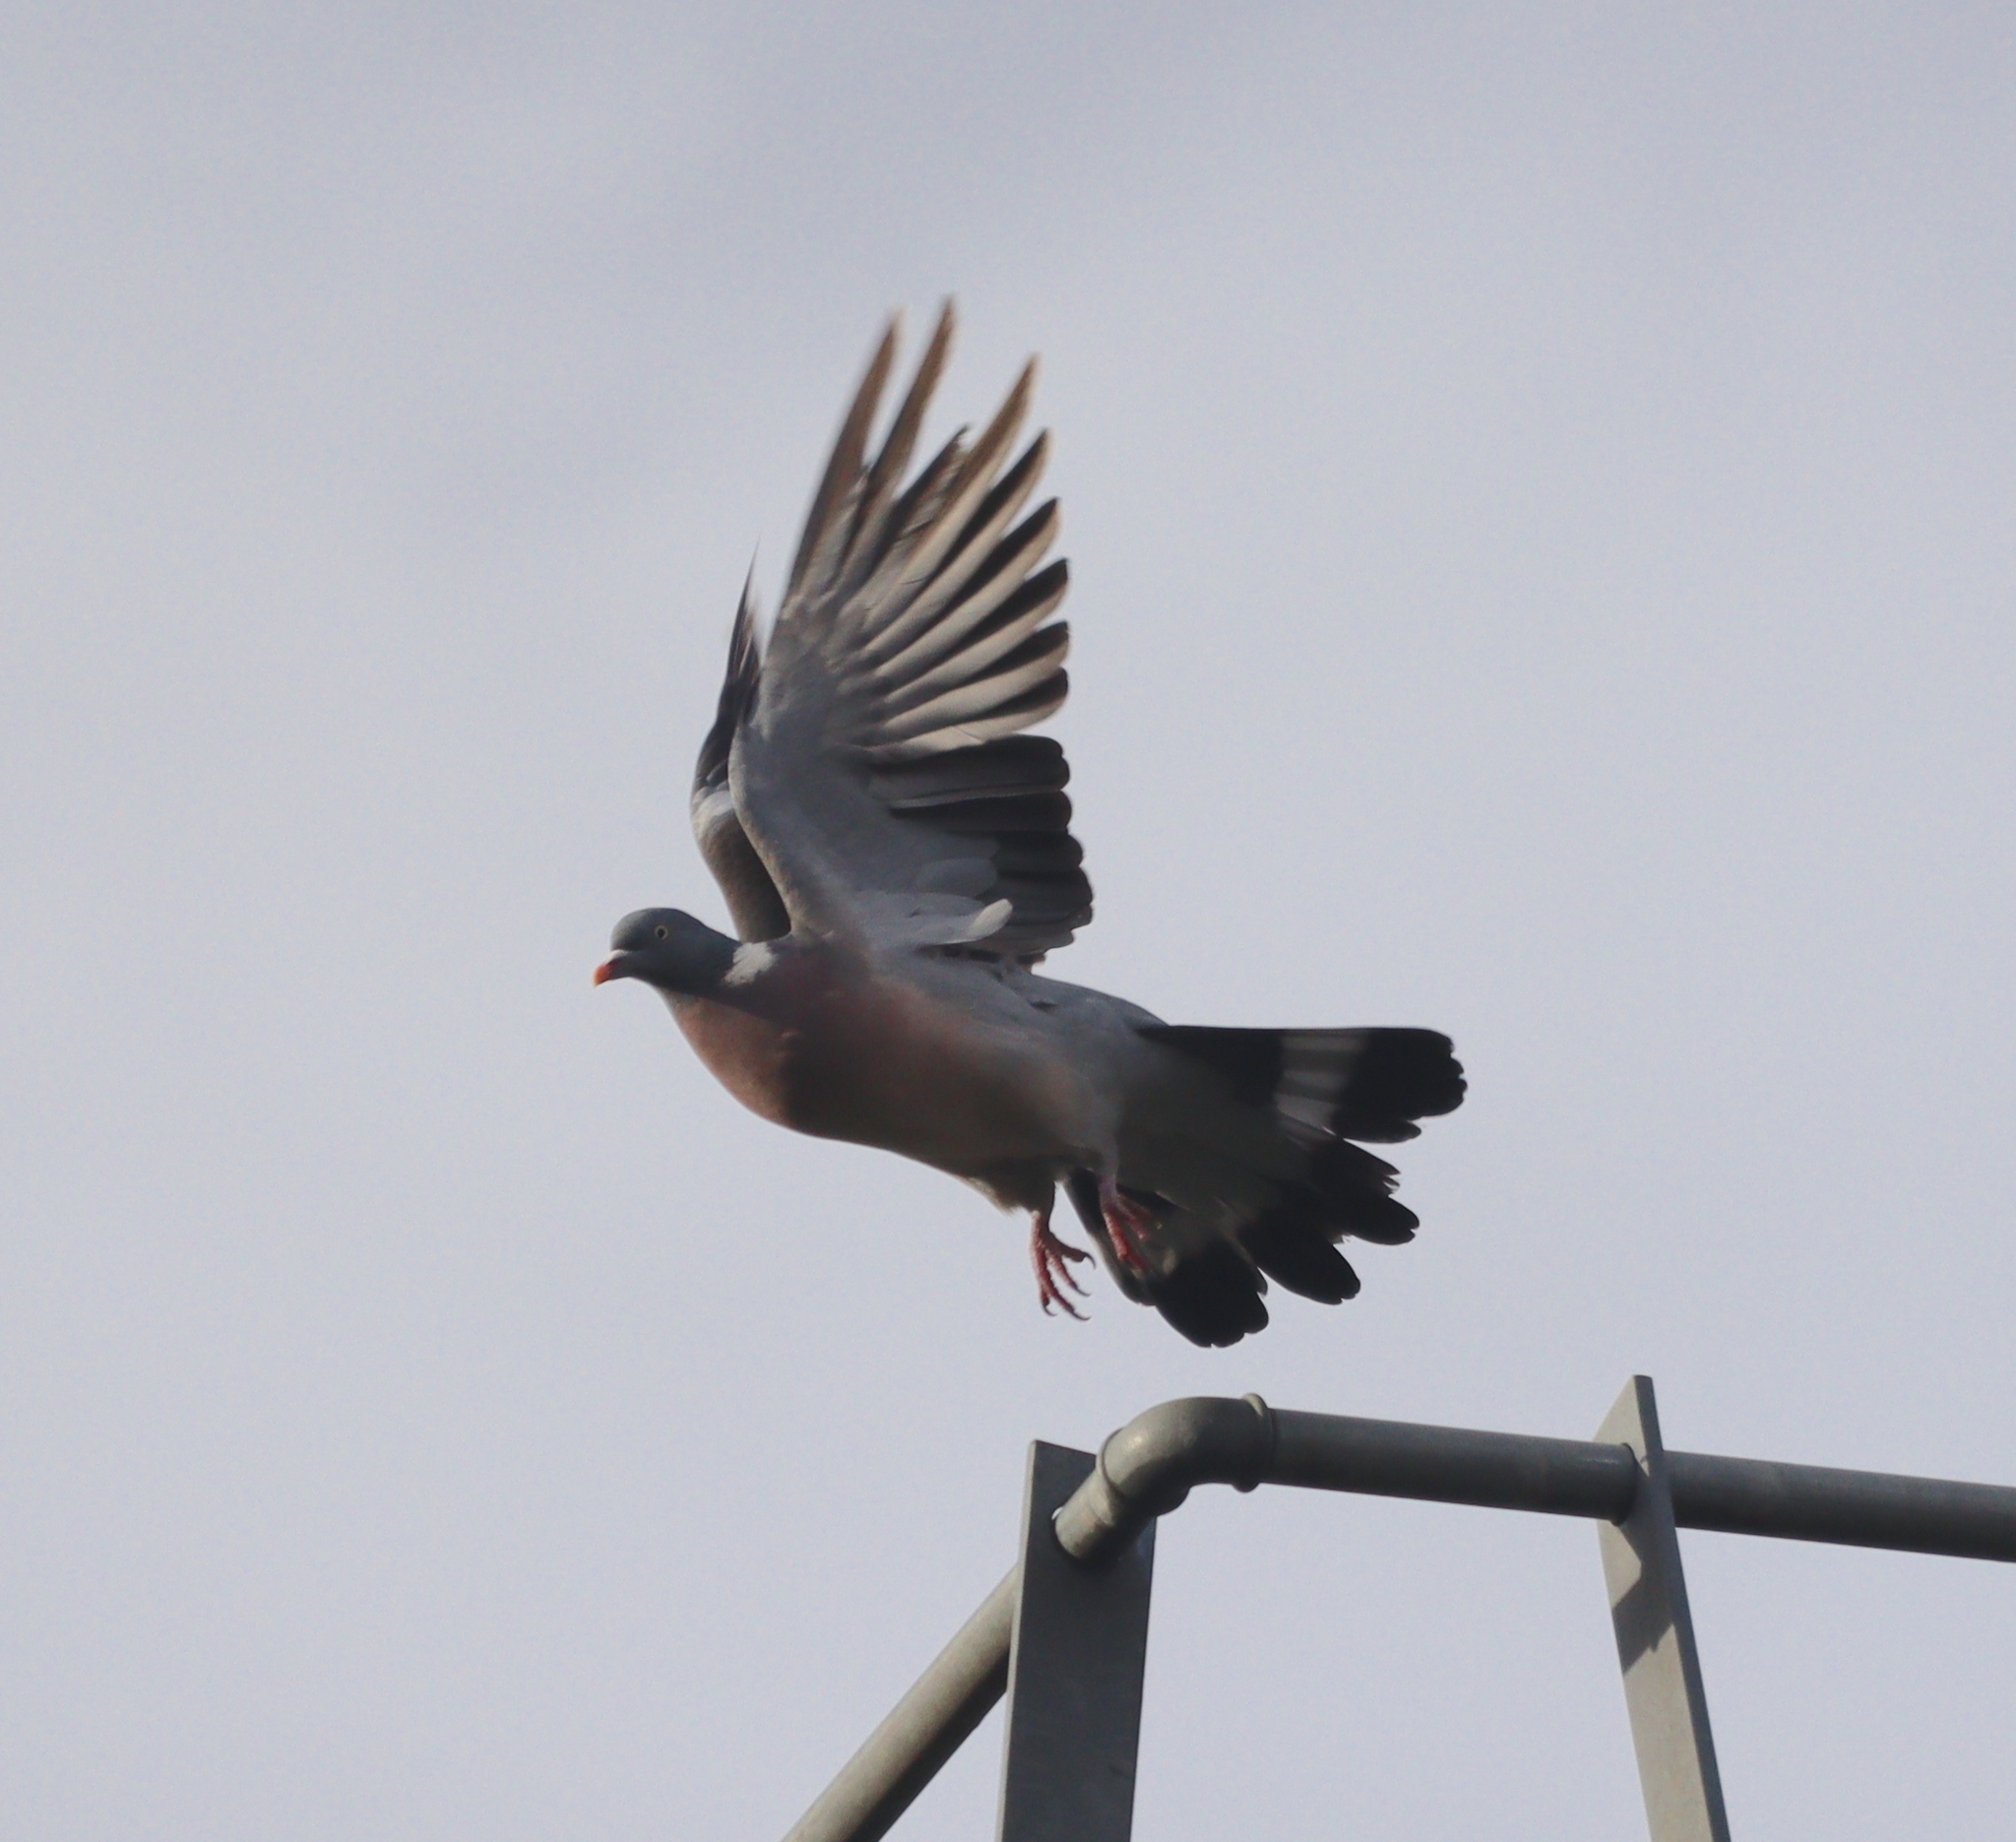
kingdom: Animalia
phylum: Chordata
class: Aves
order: Columbiformes
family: Columbidae
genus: Columba
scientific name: Columba palumbus
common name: Common wood pigeon
